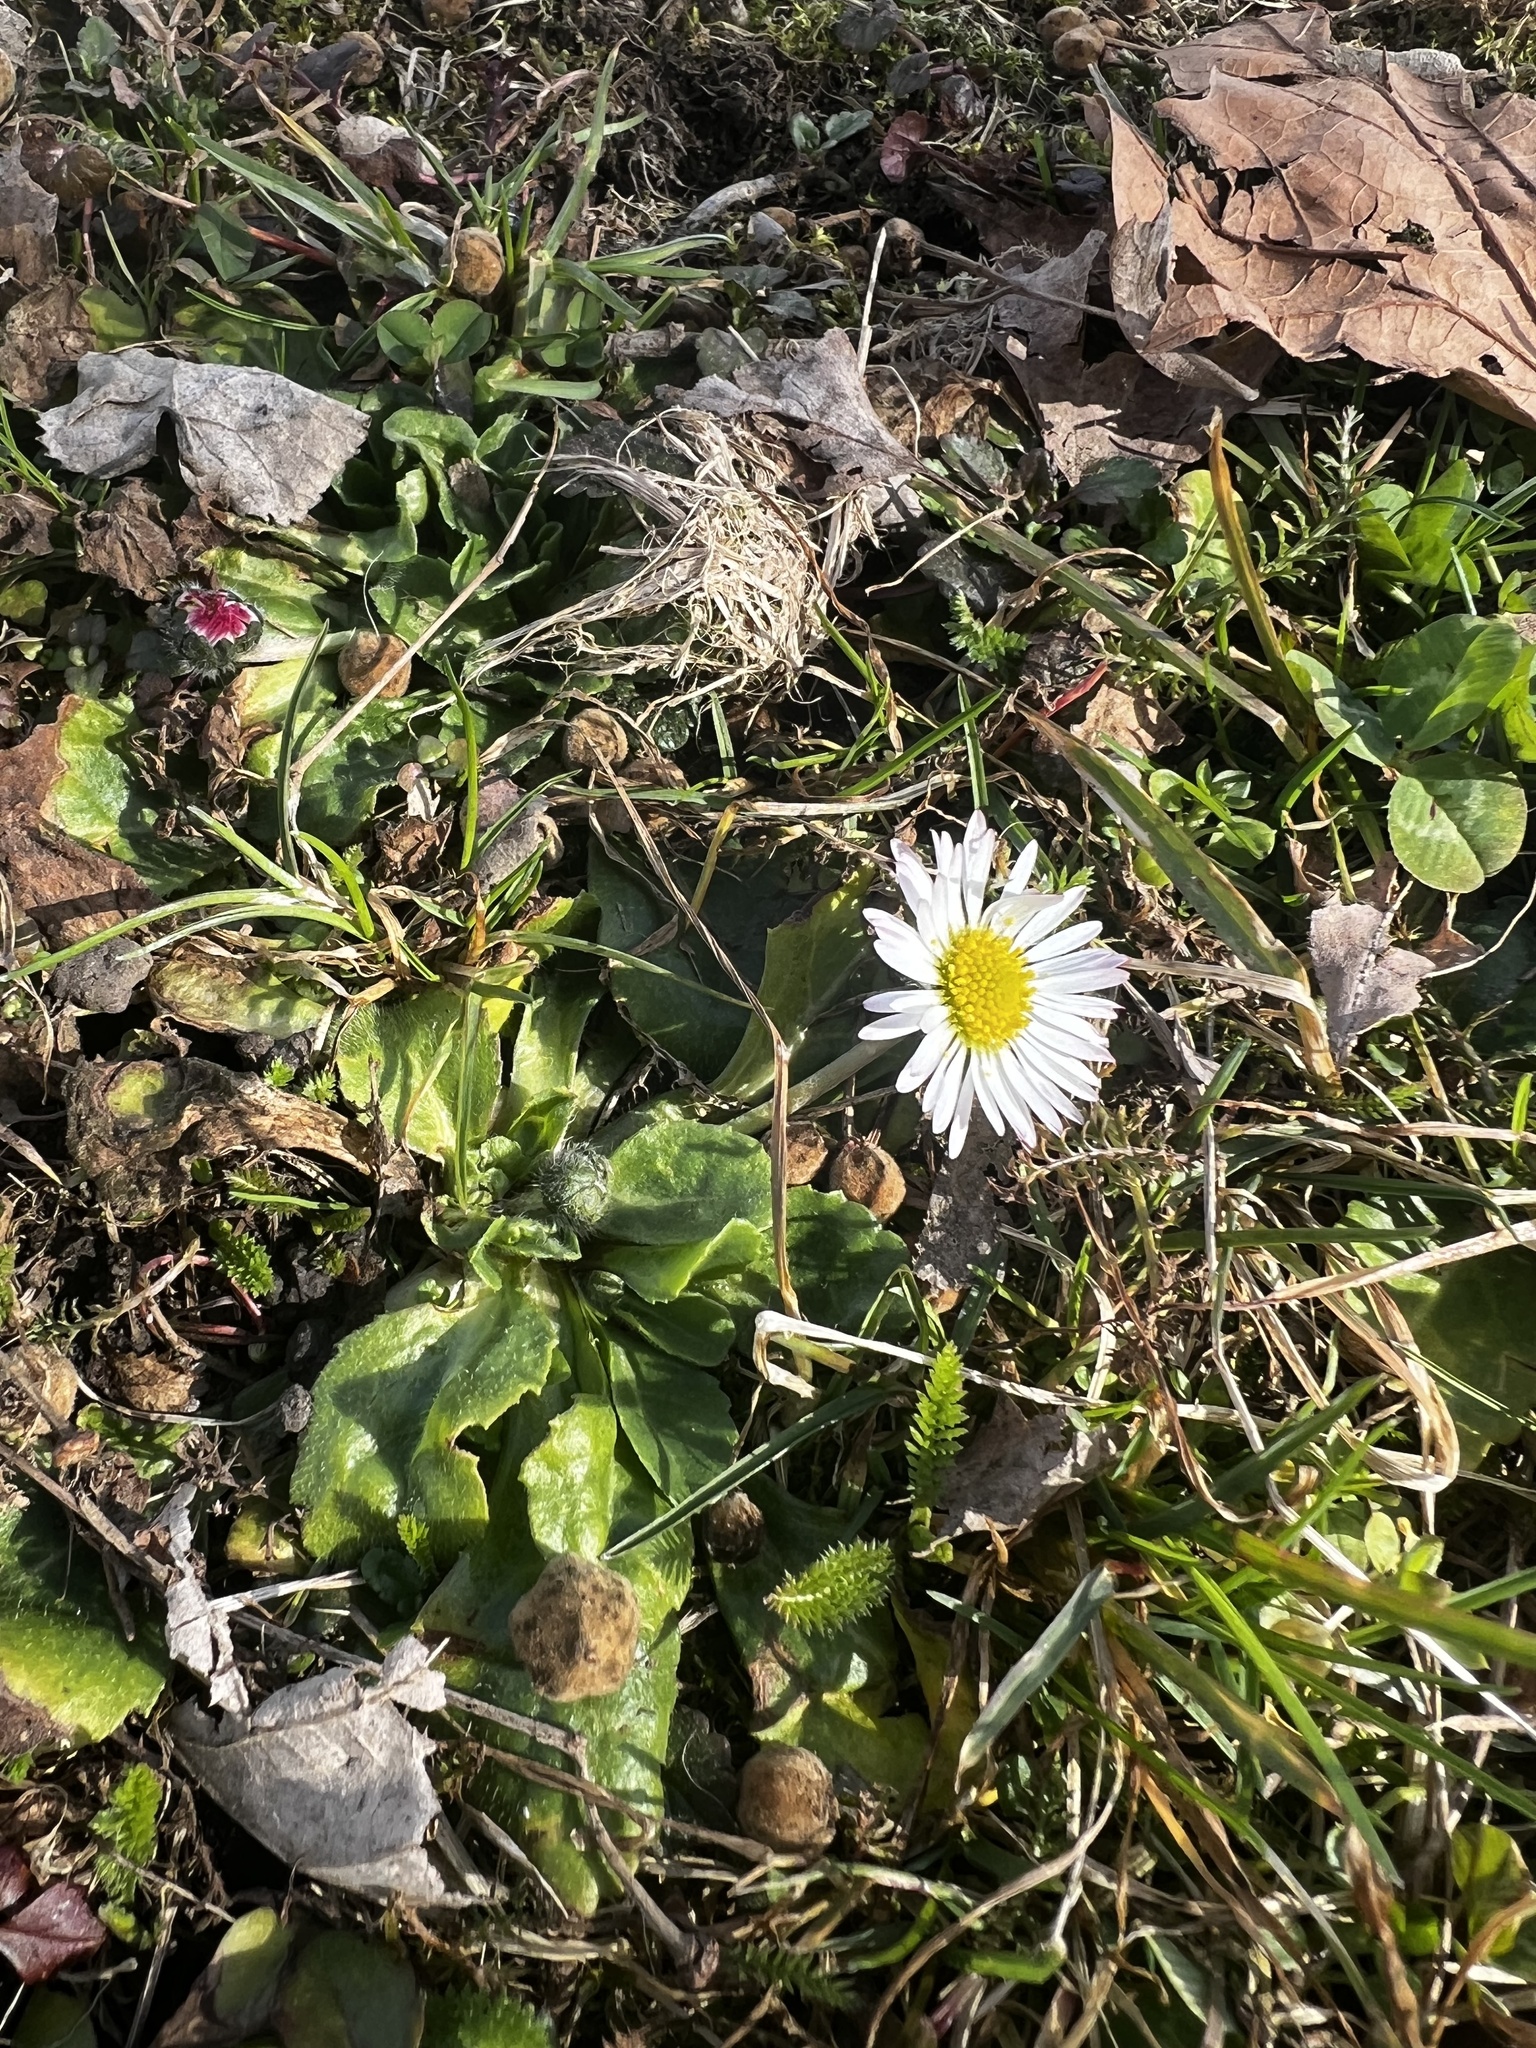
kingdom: Plantae
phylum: Tracheophyta
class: Magnoliopsida
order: Asterales
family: Asteraceae
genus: Bellis
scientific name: Bellis perennis
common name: Lawndaisy
